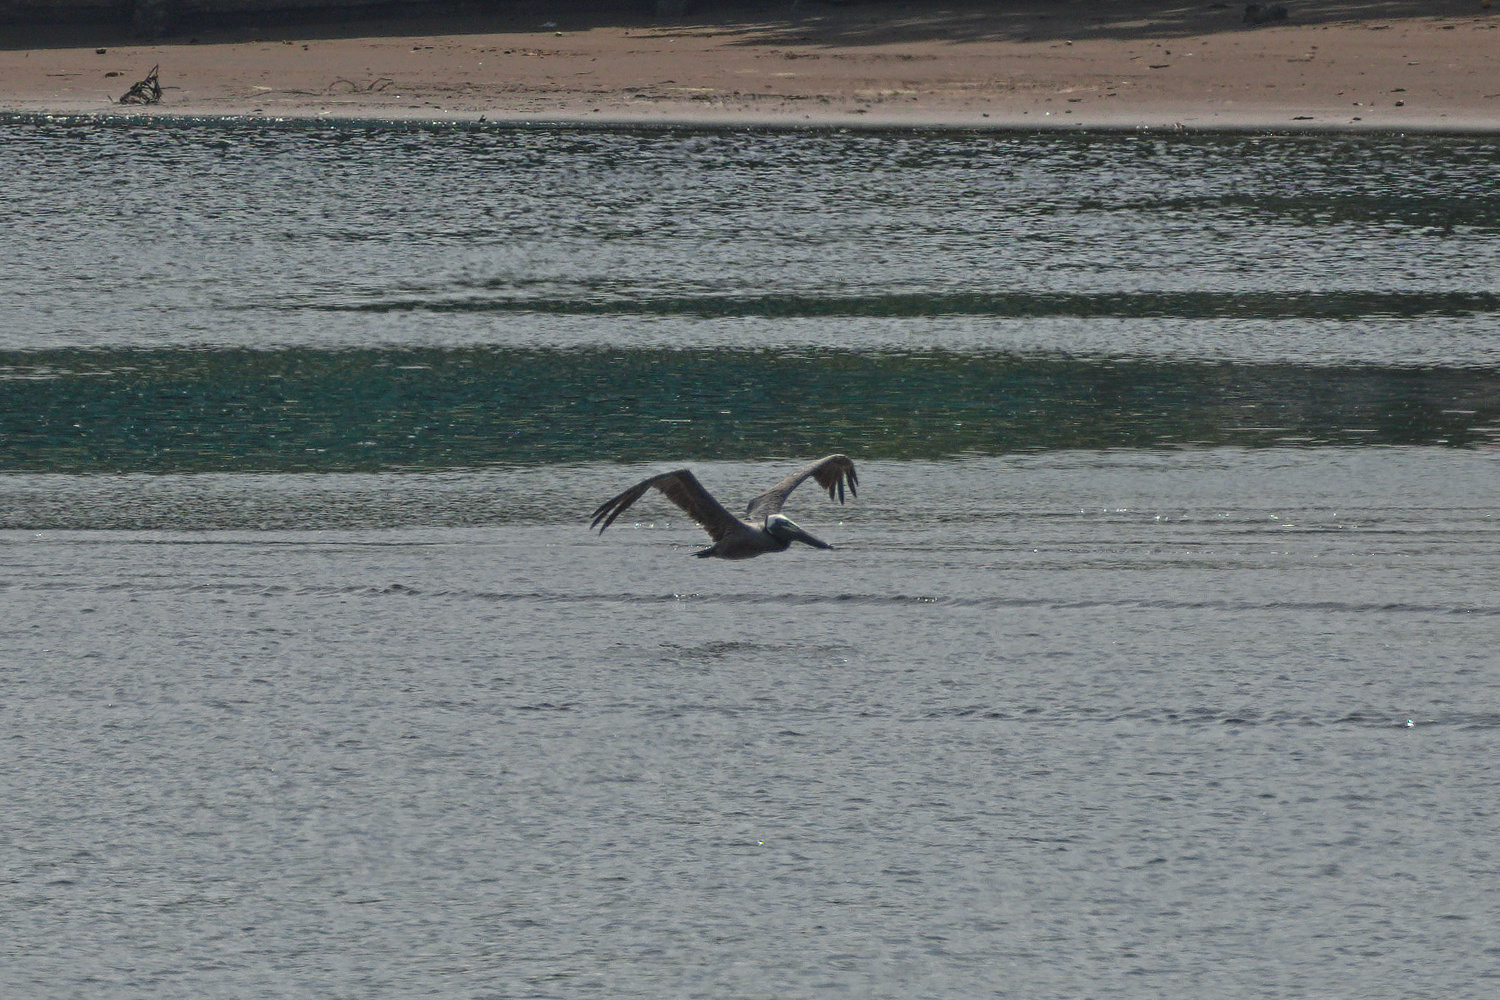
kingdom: Animalia
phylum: Chordata
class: Aves
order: Pelecaniformes
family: Pelecanidae
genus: Pelecanus
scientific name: Pelecanus occidentalis
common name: Brown pelican
